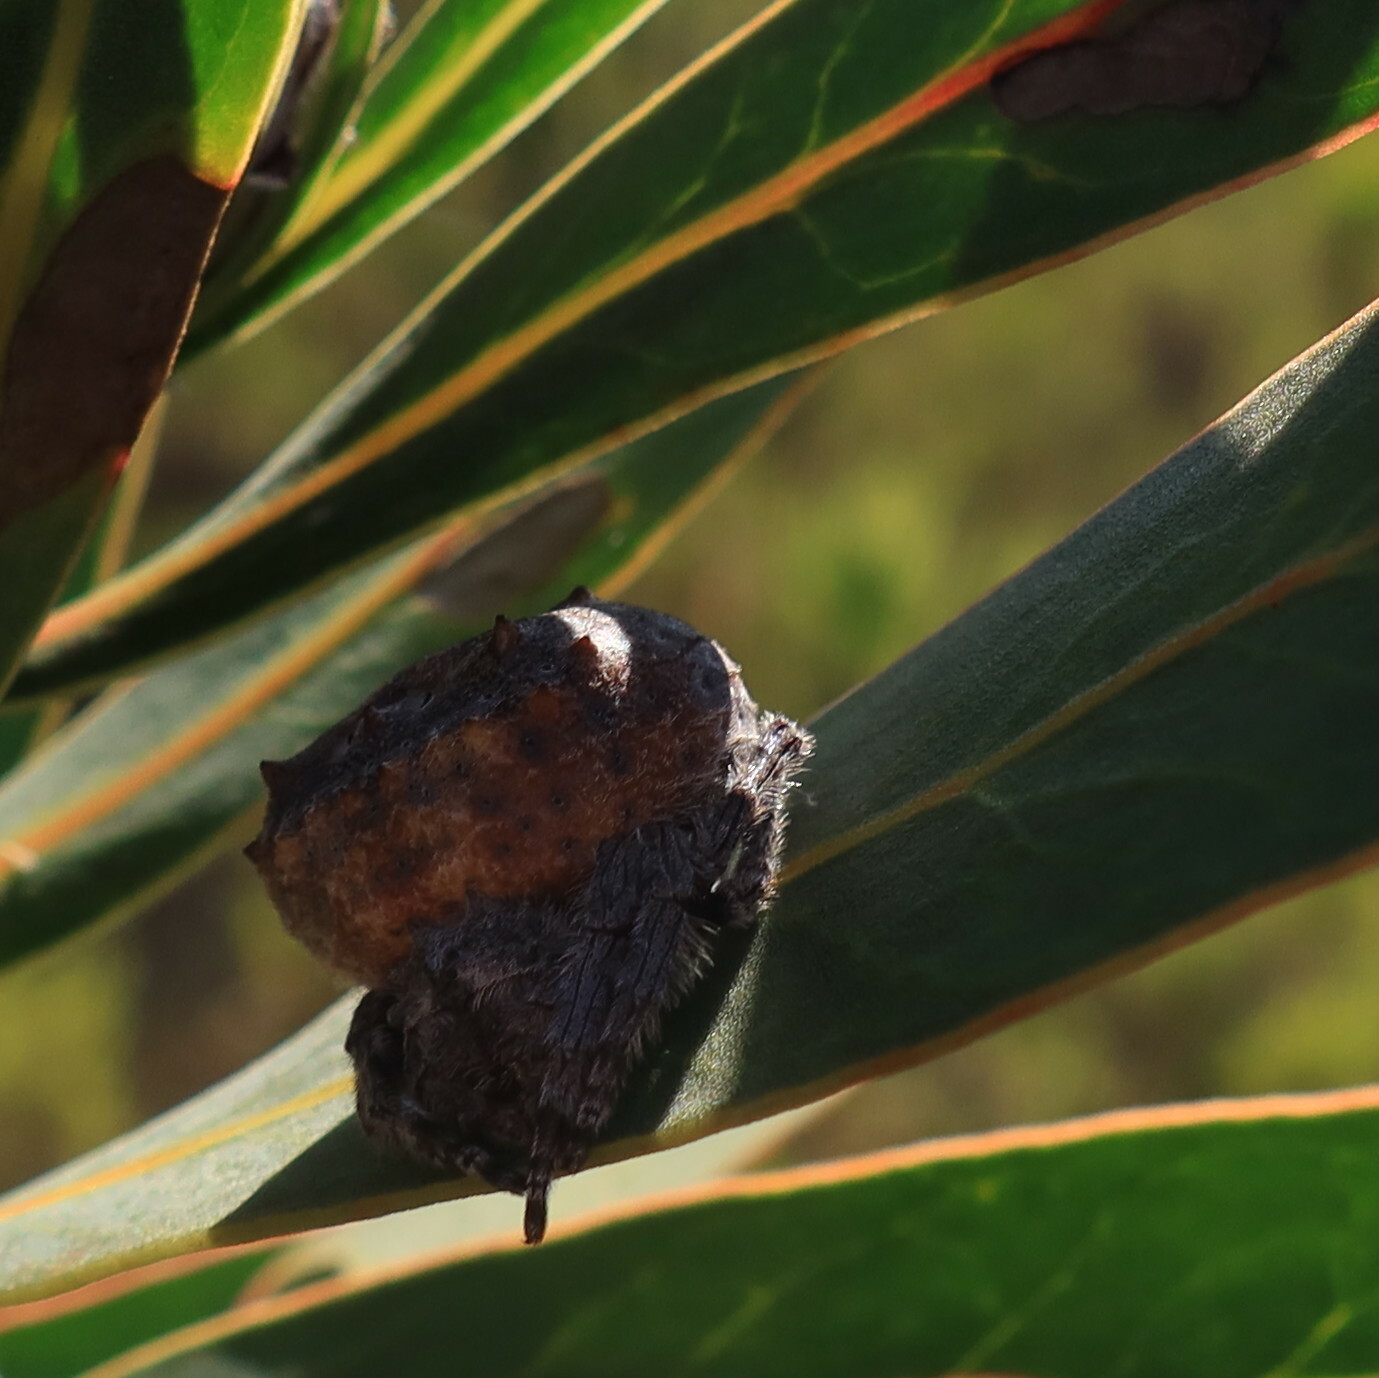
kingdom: Animalia
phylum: Arthropoda
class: Arachnida
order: Araneae
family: Araneidae
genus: Caerostris
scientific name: Caerostris sexcuspidata
